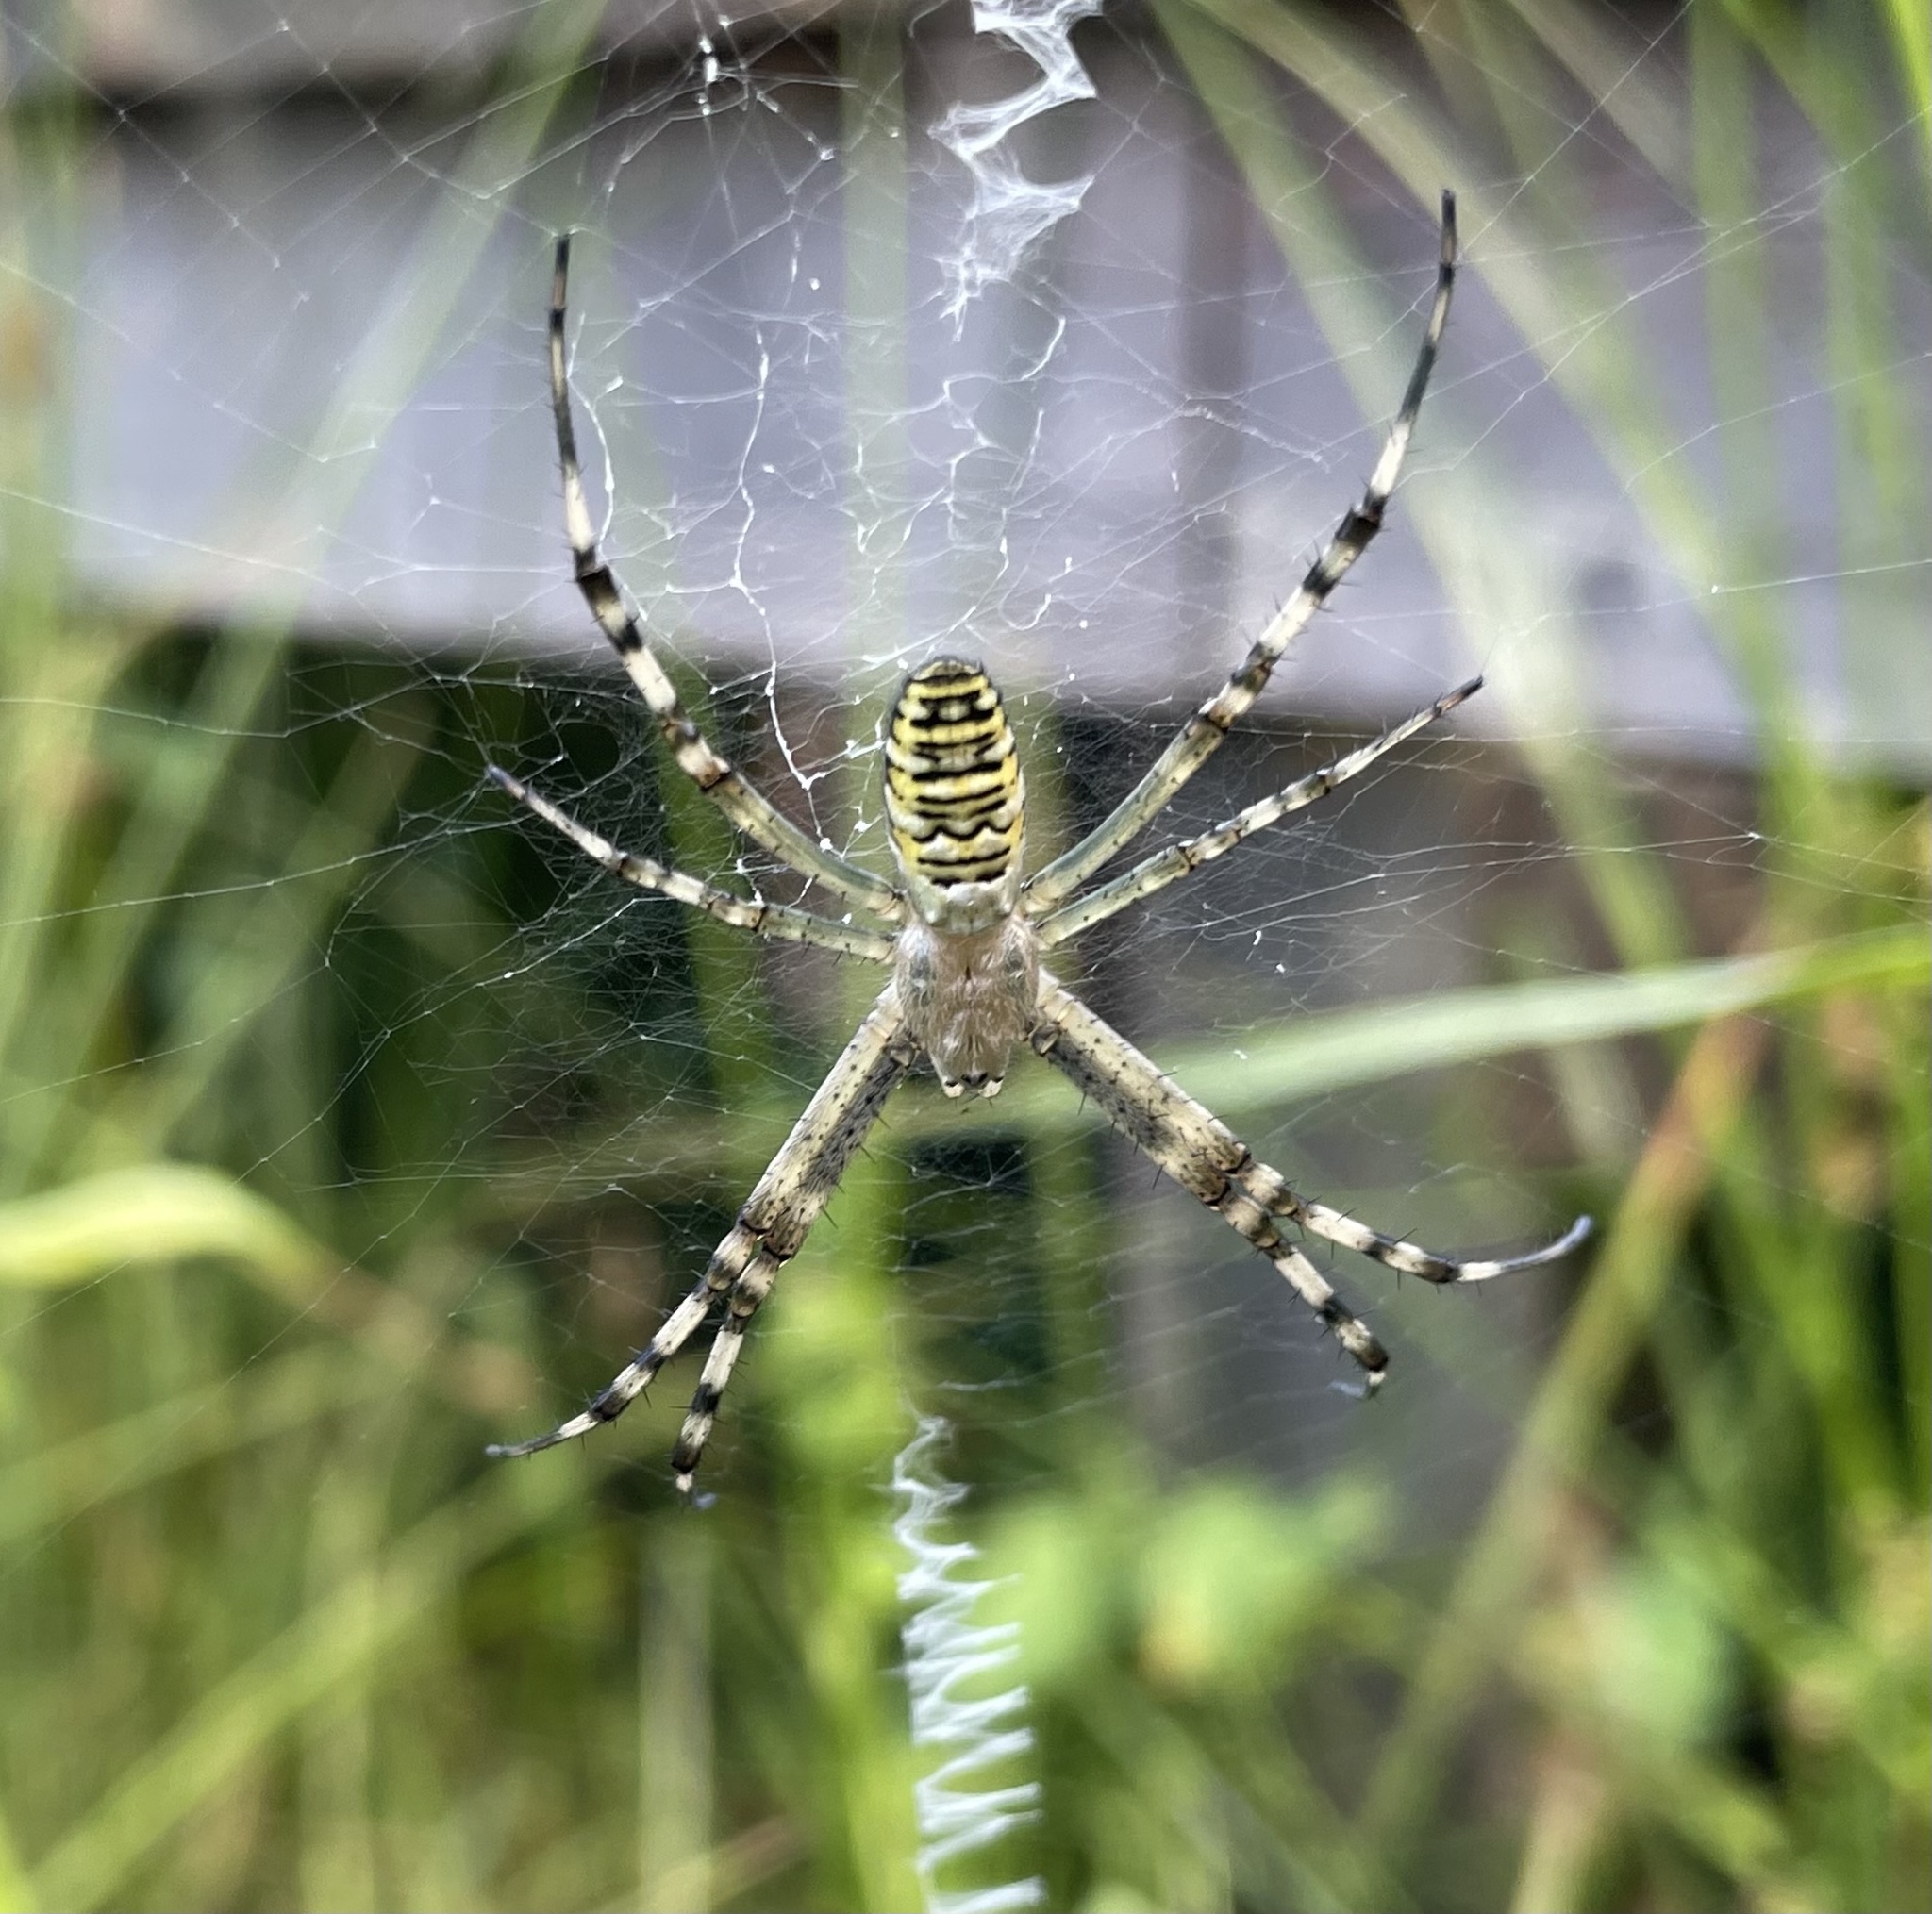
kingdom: Animalia
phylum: Arthropoda
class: Arachnida
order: Araneae
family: Araneidae
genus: Argiope
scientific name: Argiope bruennichi
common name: Wasp spider
